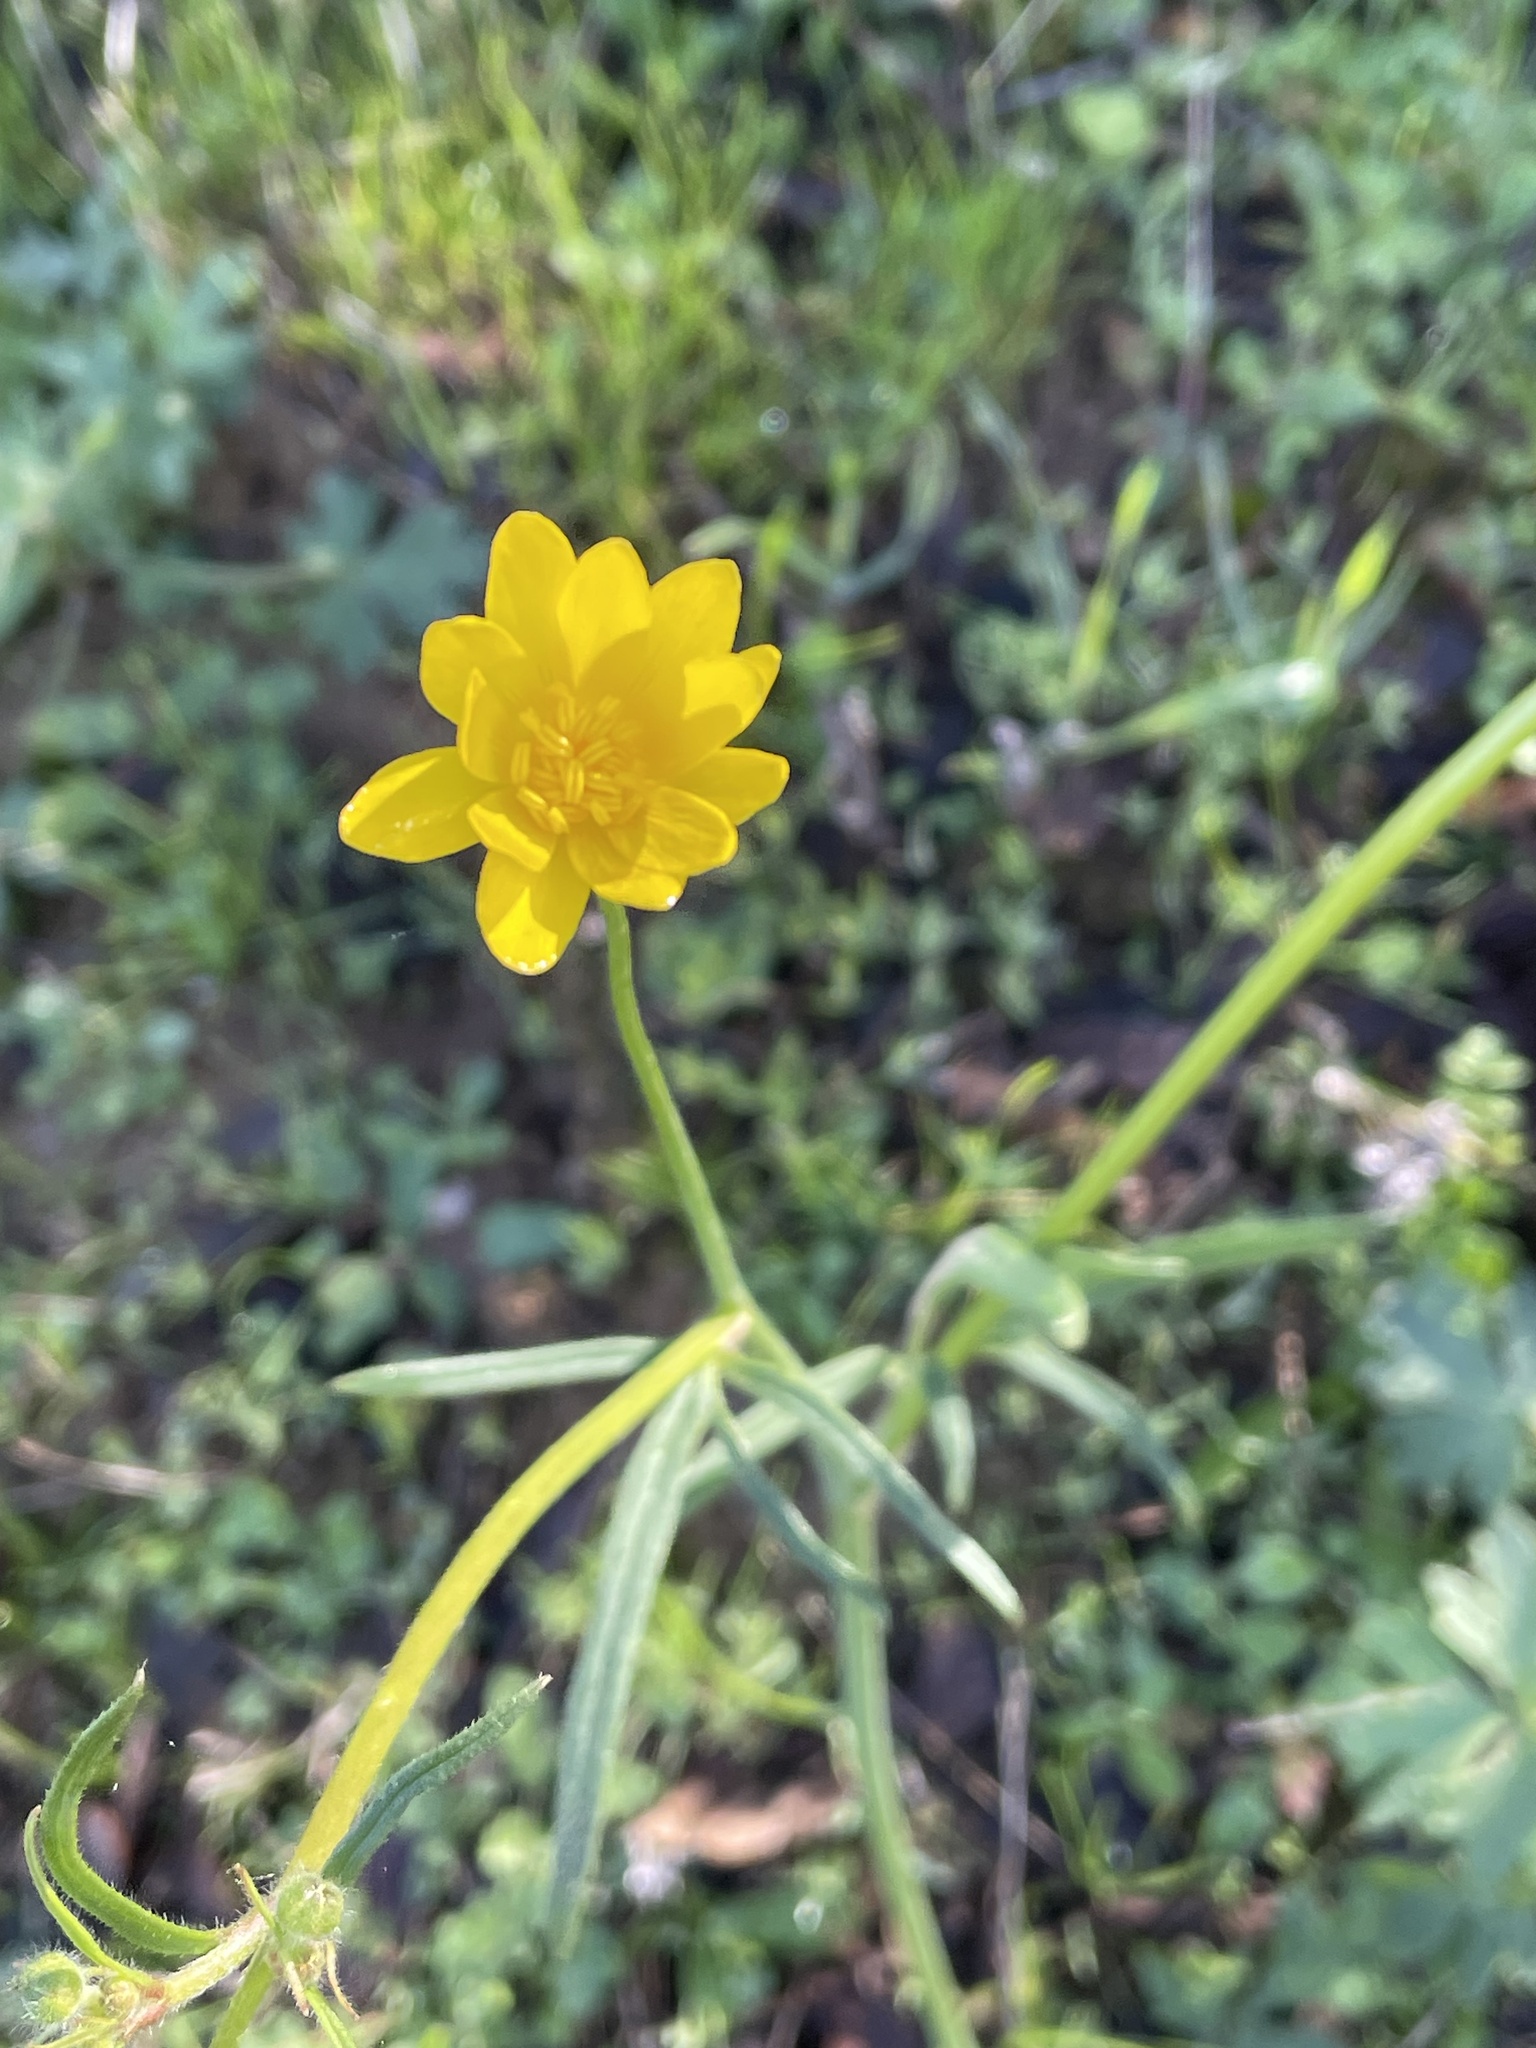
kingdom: Plantae
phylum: Tracheophyta
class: Magnoliopsida
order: Ranunculales
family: Ranunculaceae
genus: Ranunculus
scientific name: Ranunculus californicus
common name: California buttercup
